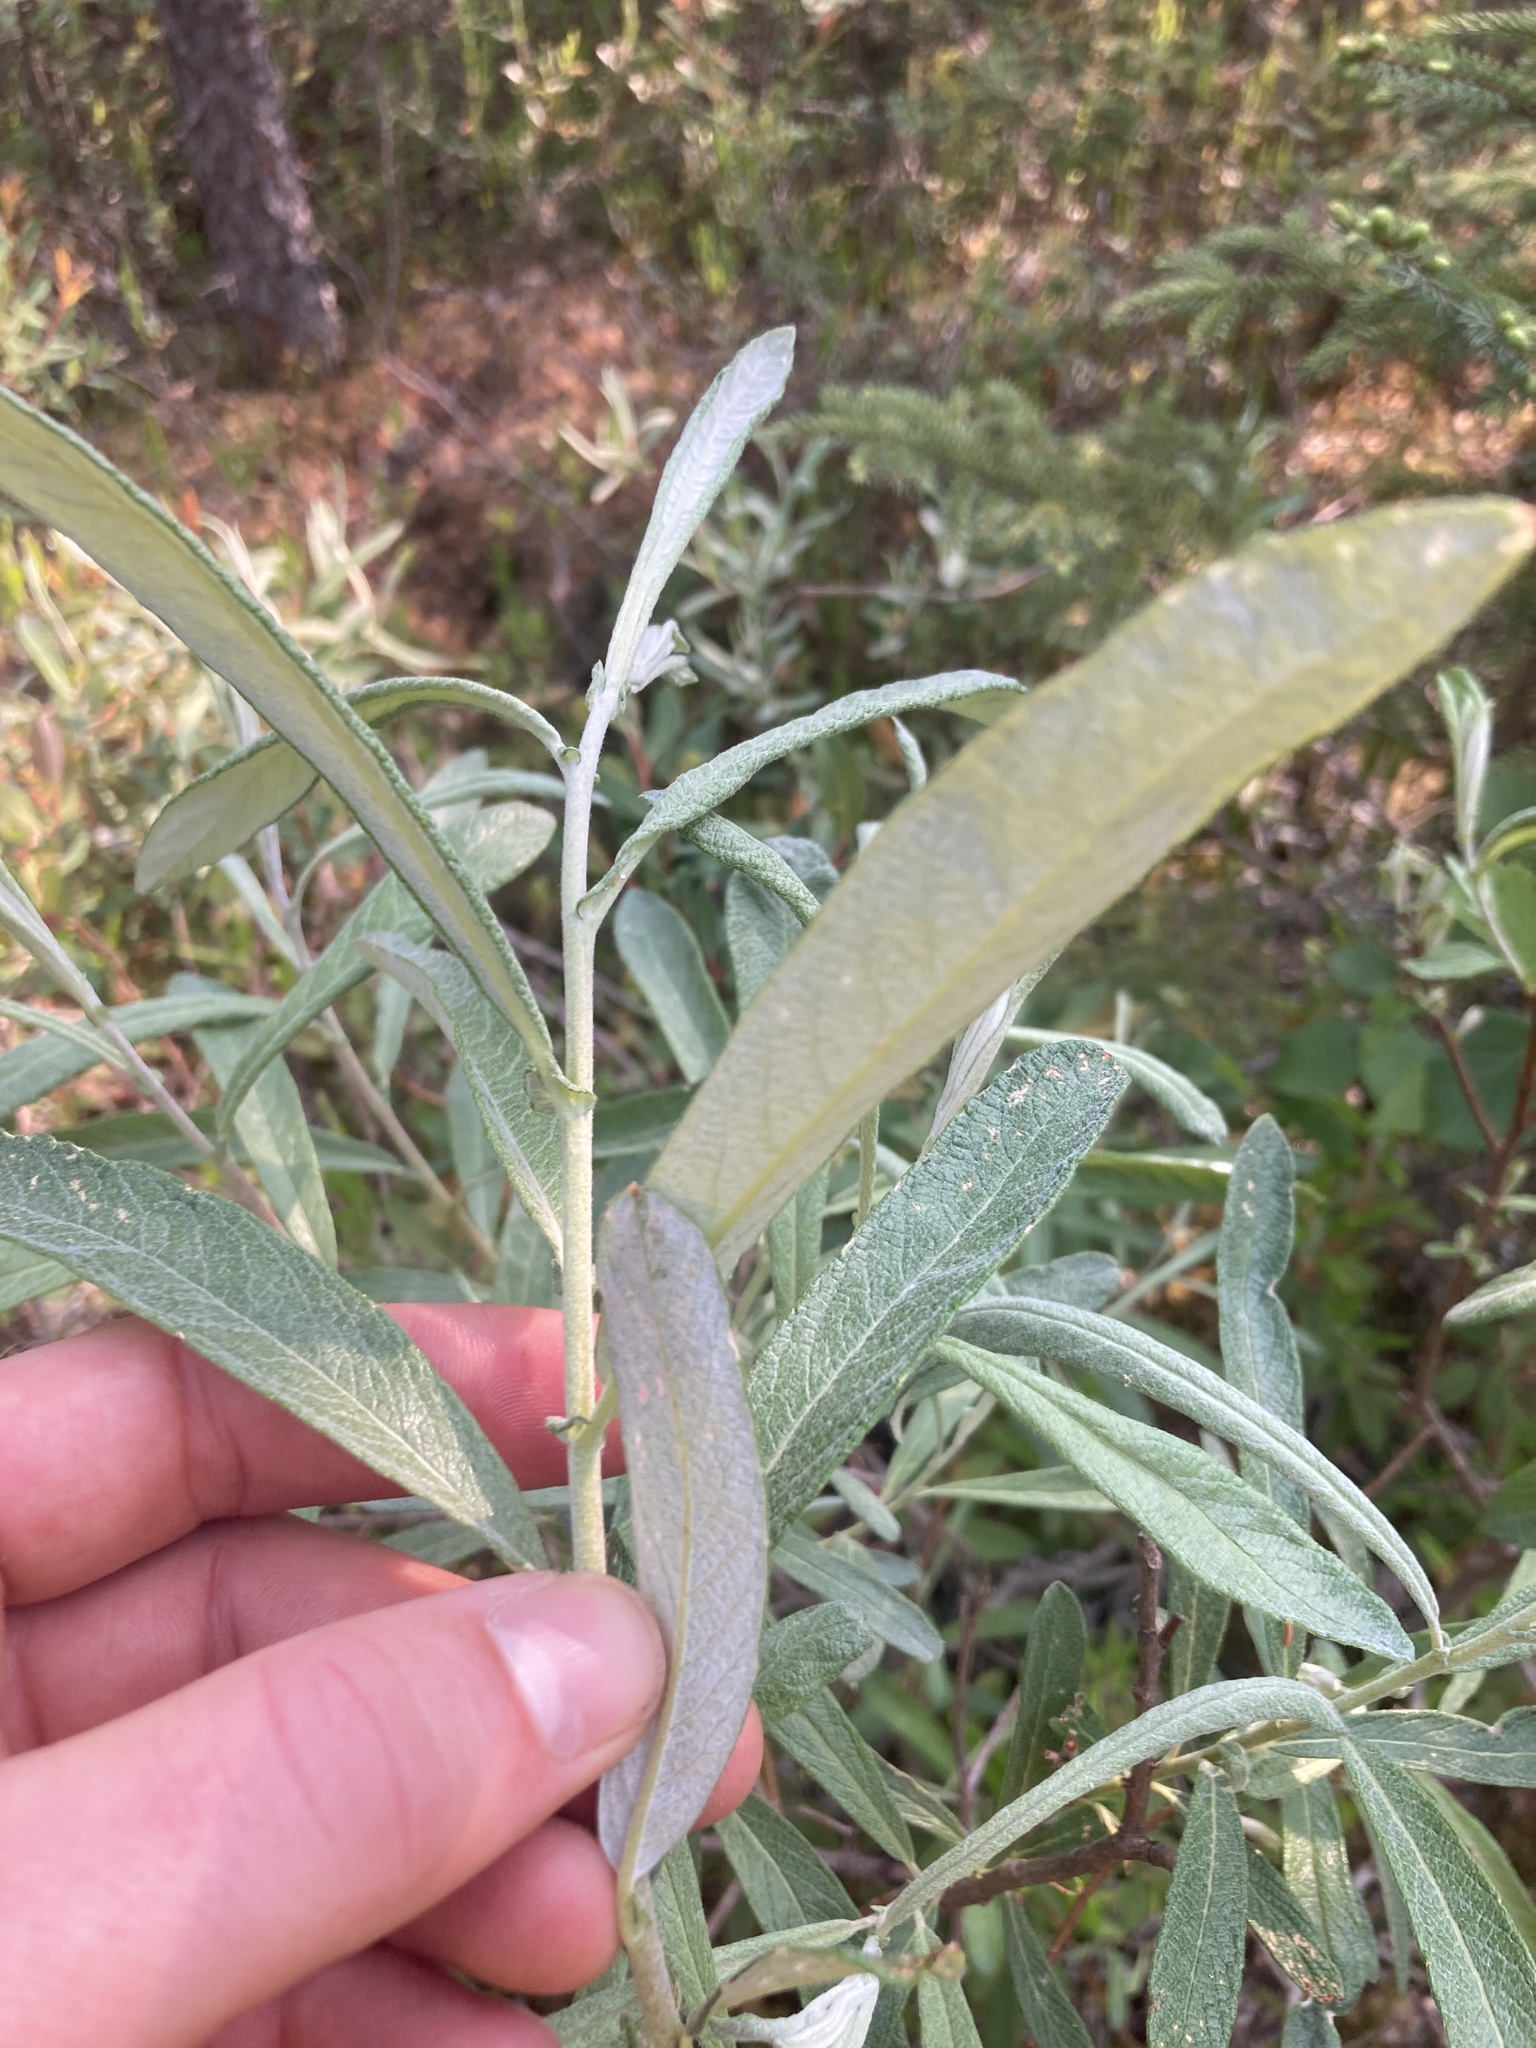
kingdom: Plantae
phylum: Tracheophyta
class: Magnoliopsida
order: Malpighiales
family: Salicaceae
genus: Salix
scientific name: Salix candida
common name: Hoary willow
